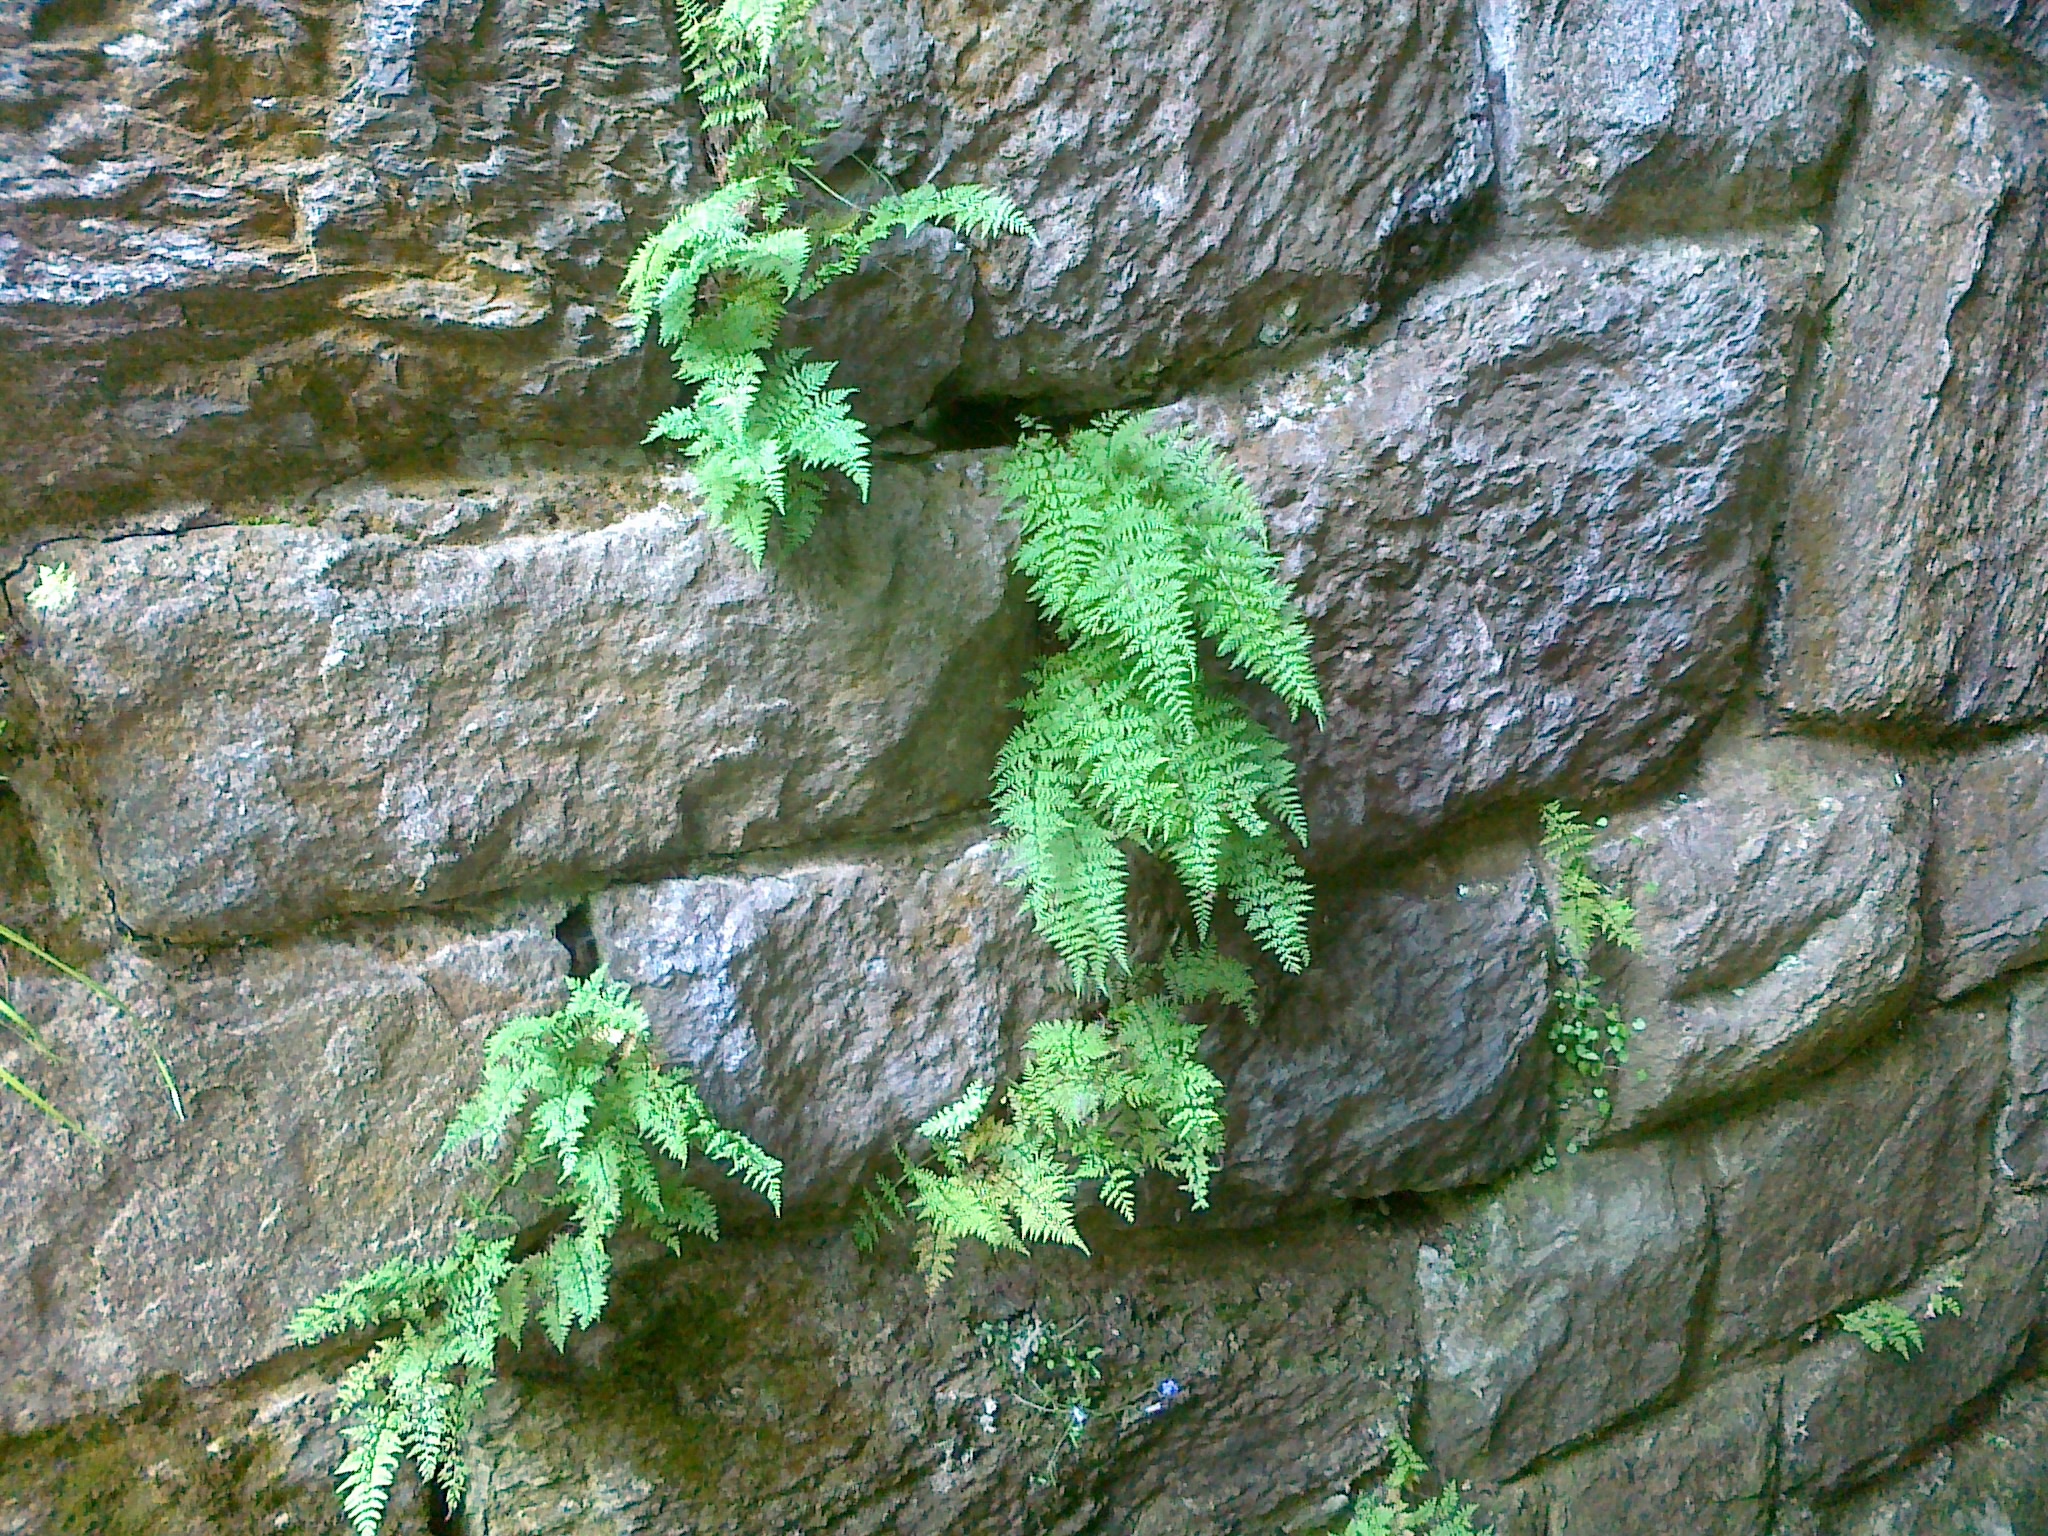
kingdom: Plantae
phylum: Tracheophyta
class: Polypodiopsida
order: Polypodiales
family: Cystopteridaceae
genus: Cystopteris
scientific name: Cystopteris fragilis
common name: Brittle bladder fern
